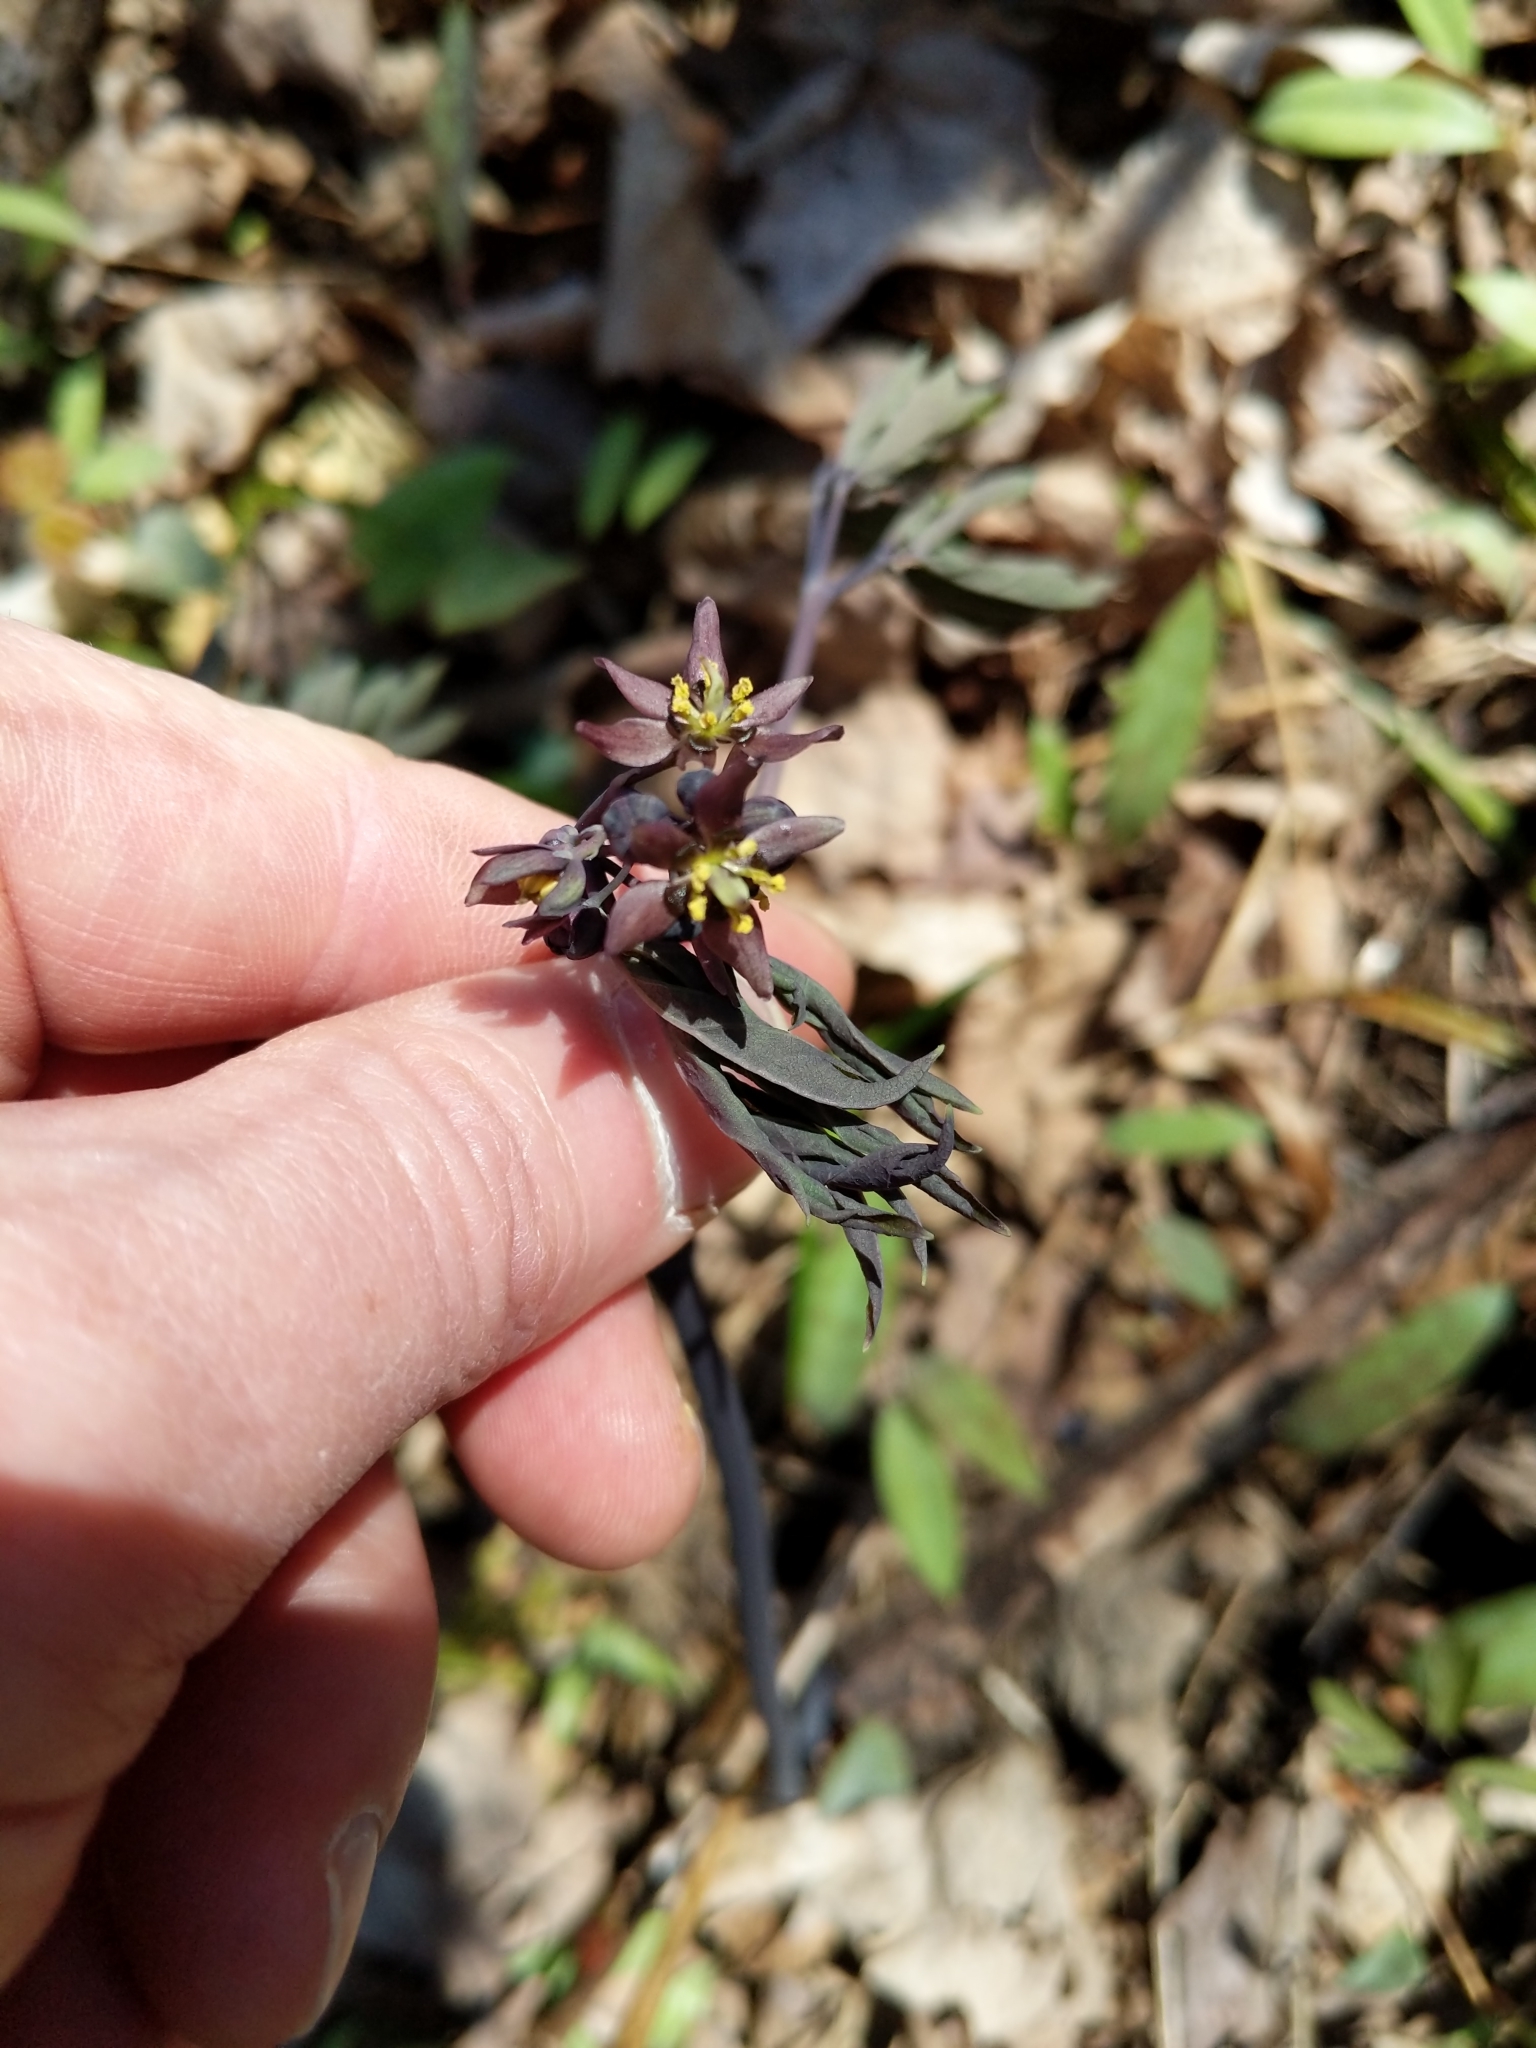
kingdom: Plantae
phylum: Tracheophyta
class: Magnoliopsida
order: Ranunculales
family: Berberidaceae
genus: Caulophyllum
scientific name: Caulophyllum giganteum
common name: Blue cohosh
